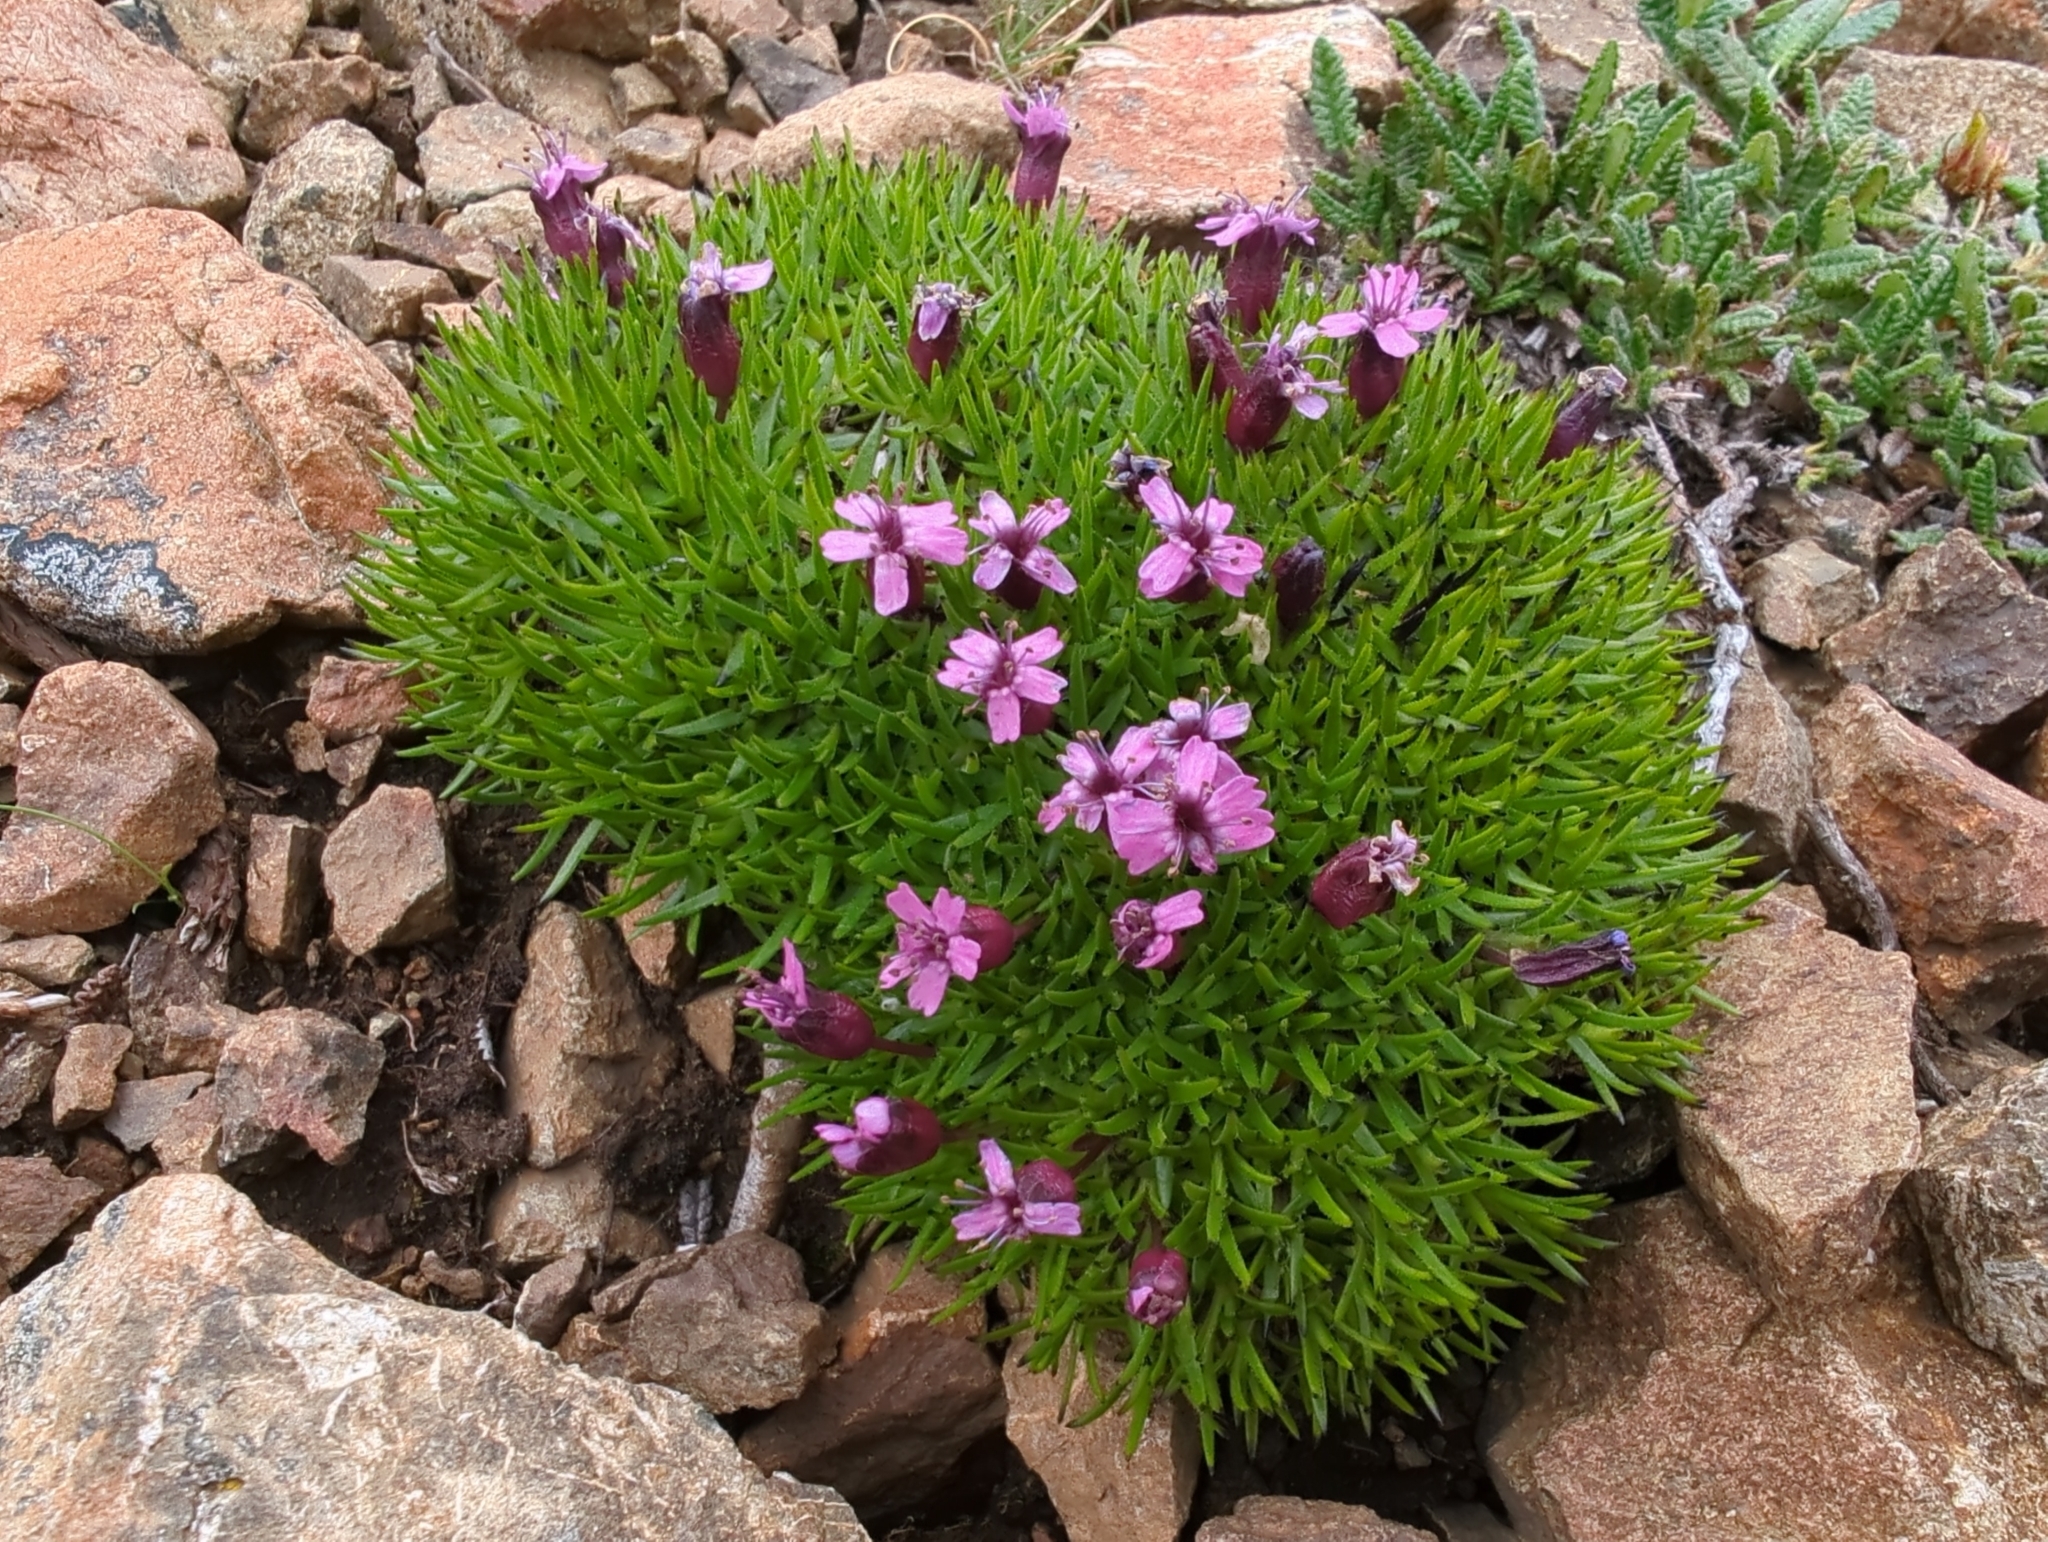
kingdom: Plantae
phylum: Tracheophyta
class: Magnoliopsida
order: Caryophyllales
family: Caryophyllaceae
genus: Silene
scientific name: Silene acaulis
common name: Moss campion
